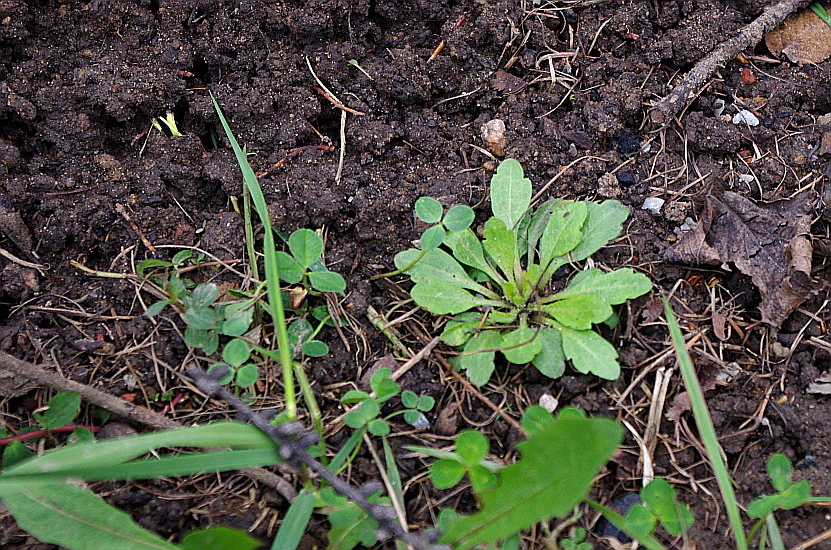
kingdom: Plantae
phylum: Tracheophyta
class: Magnoliopsida
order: Asterales
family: Asteraceae
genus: Erigeron
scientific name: Erigeron canadensis
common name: Canadian fleabane
